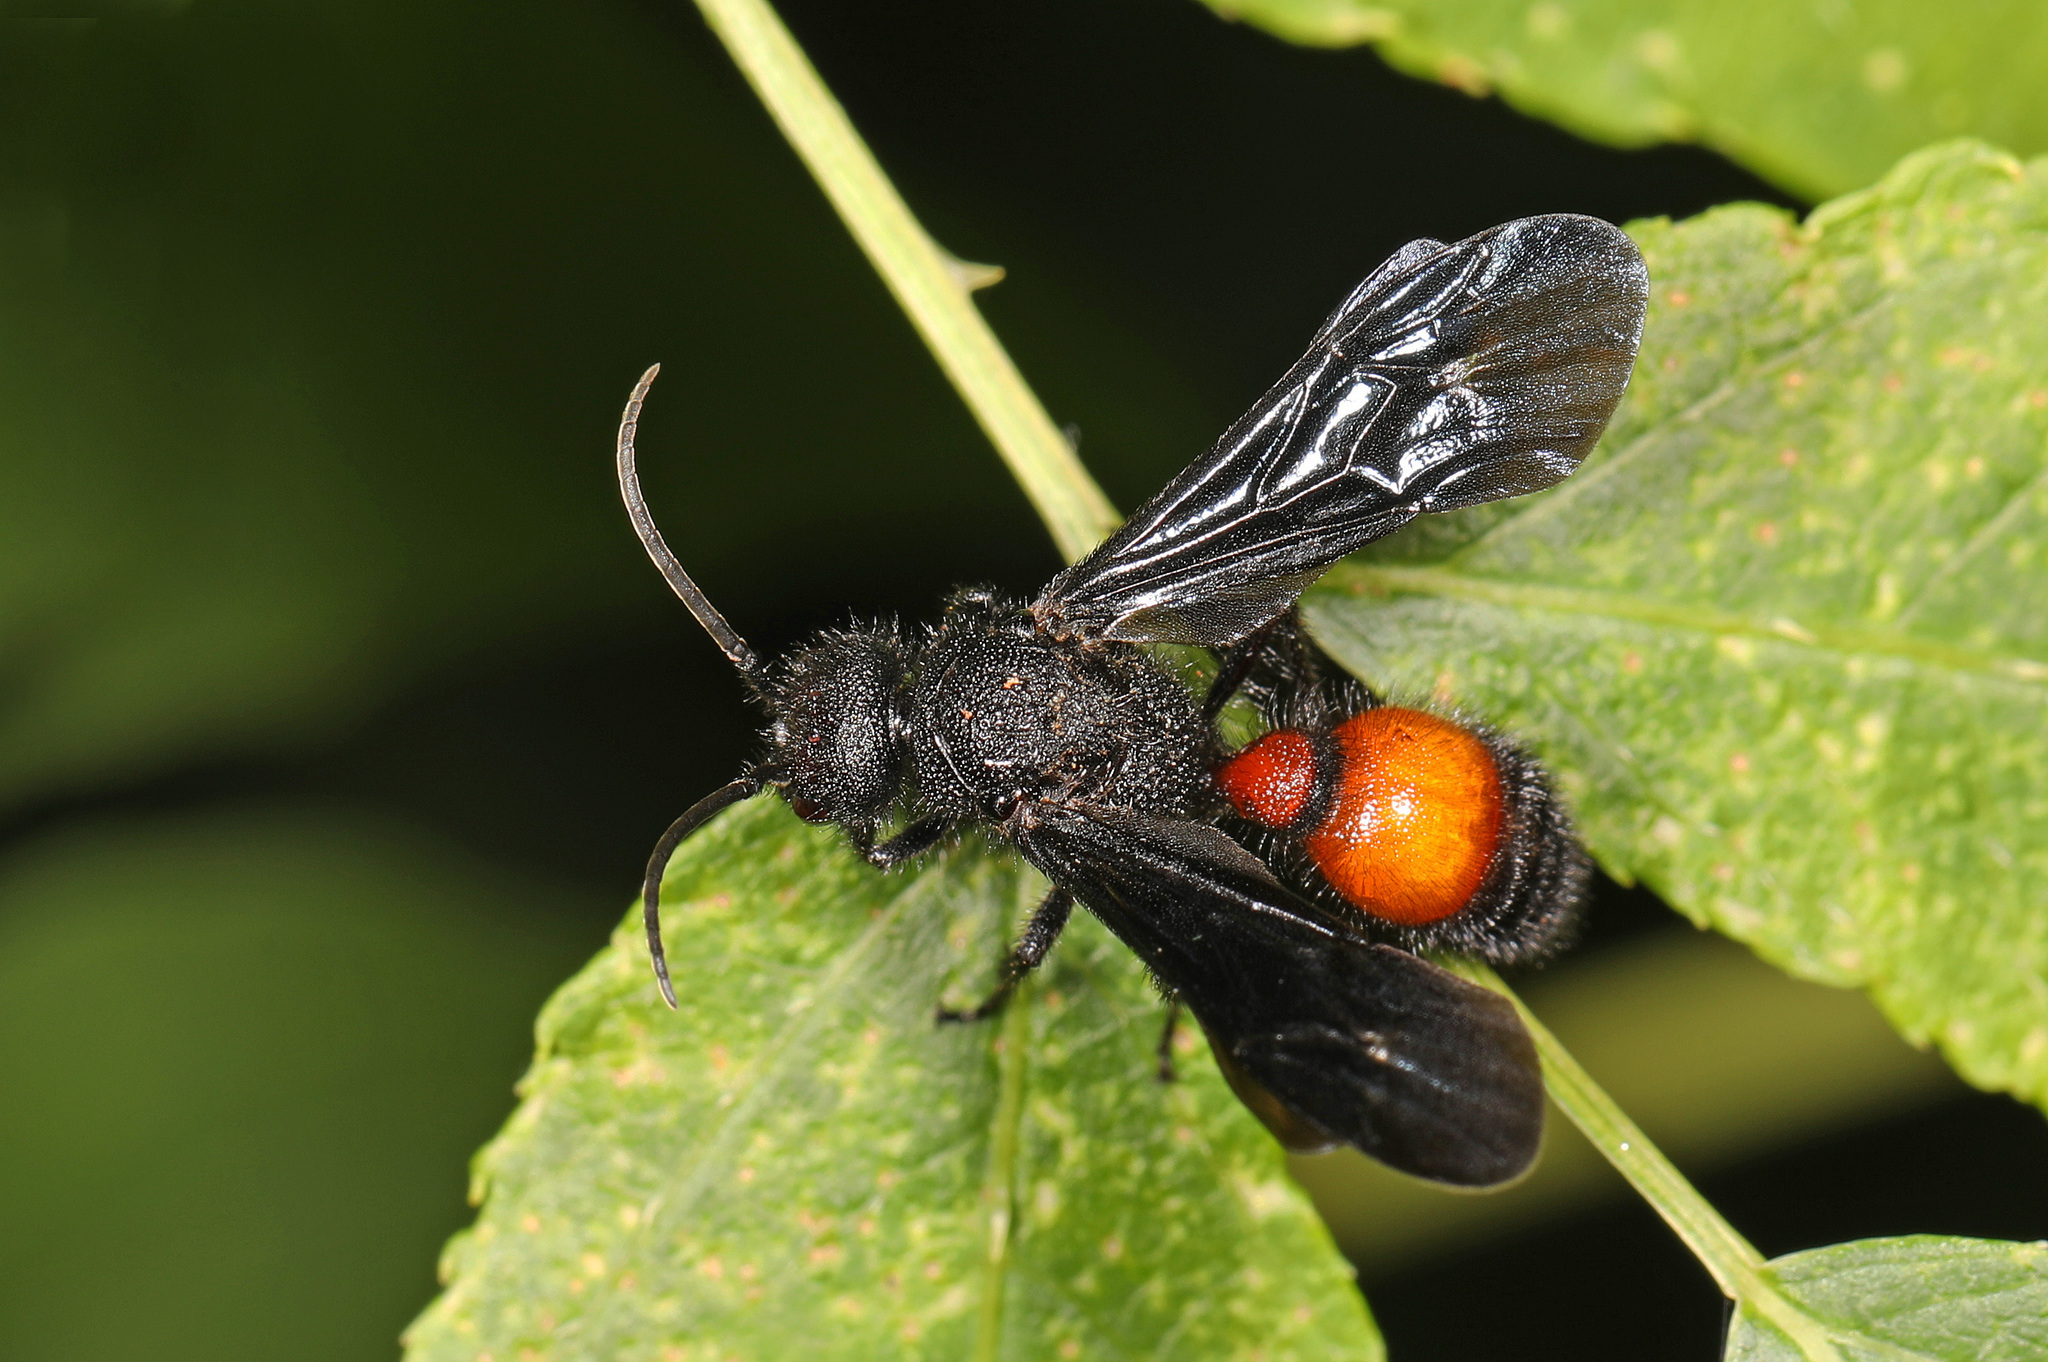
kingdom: Animalia
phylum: Arthropoda
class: Insecta
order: Hymenoptera
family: Mutillidae
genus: Sphaeropthalma
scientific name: Sphaeropthalma
